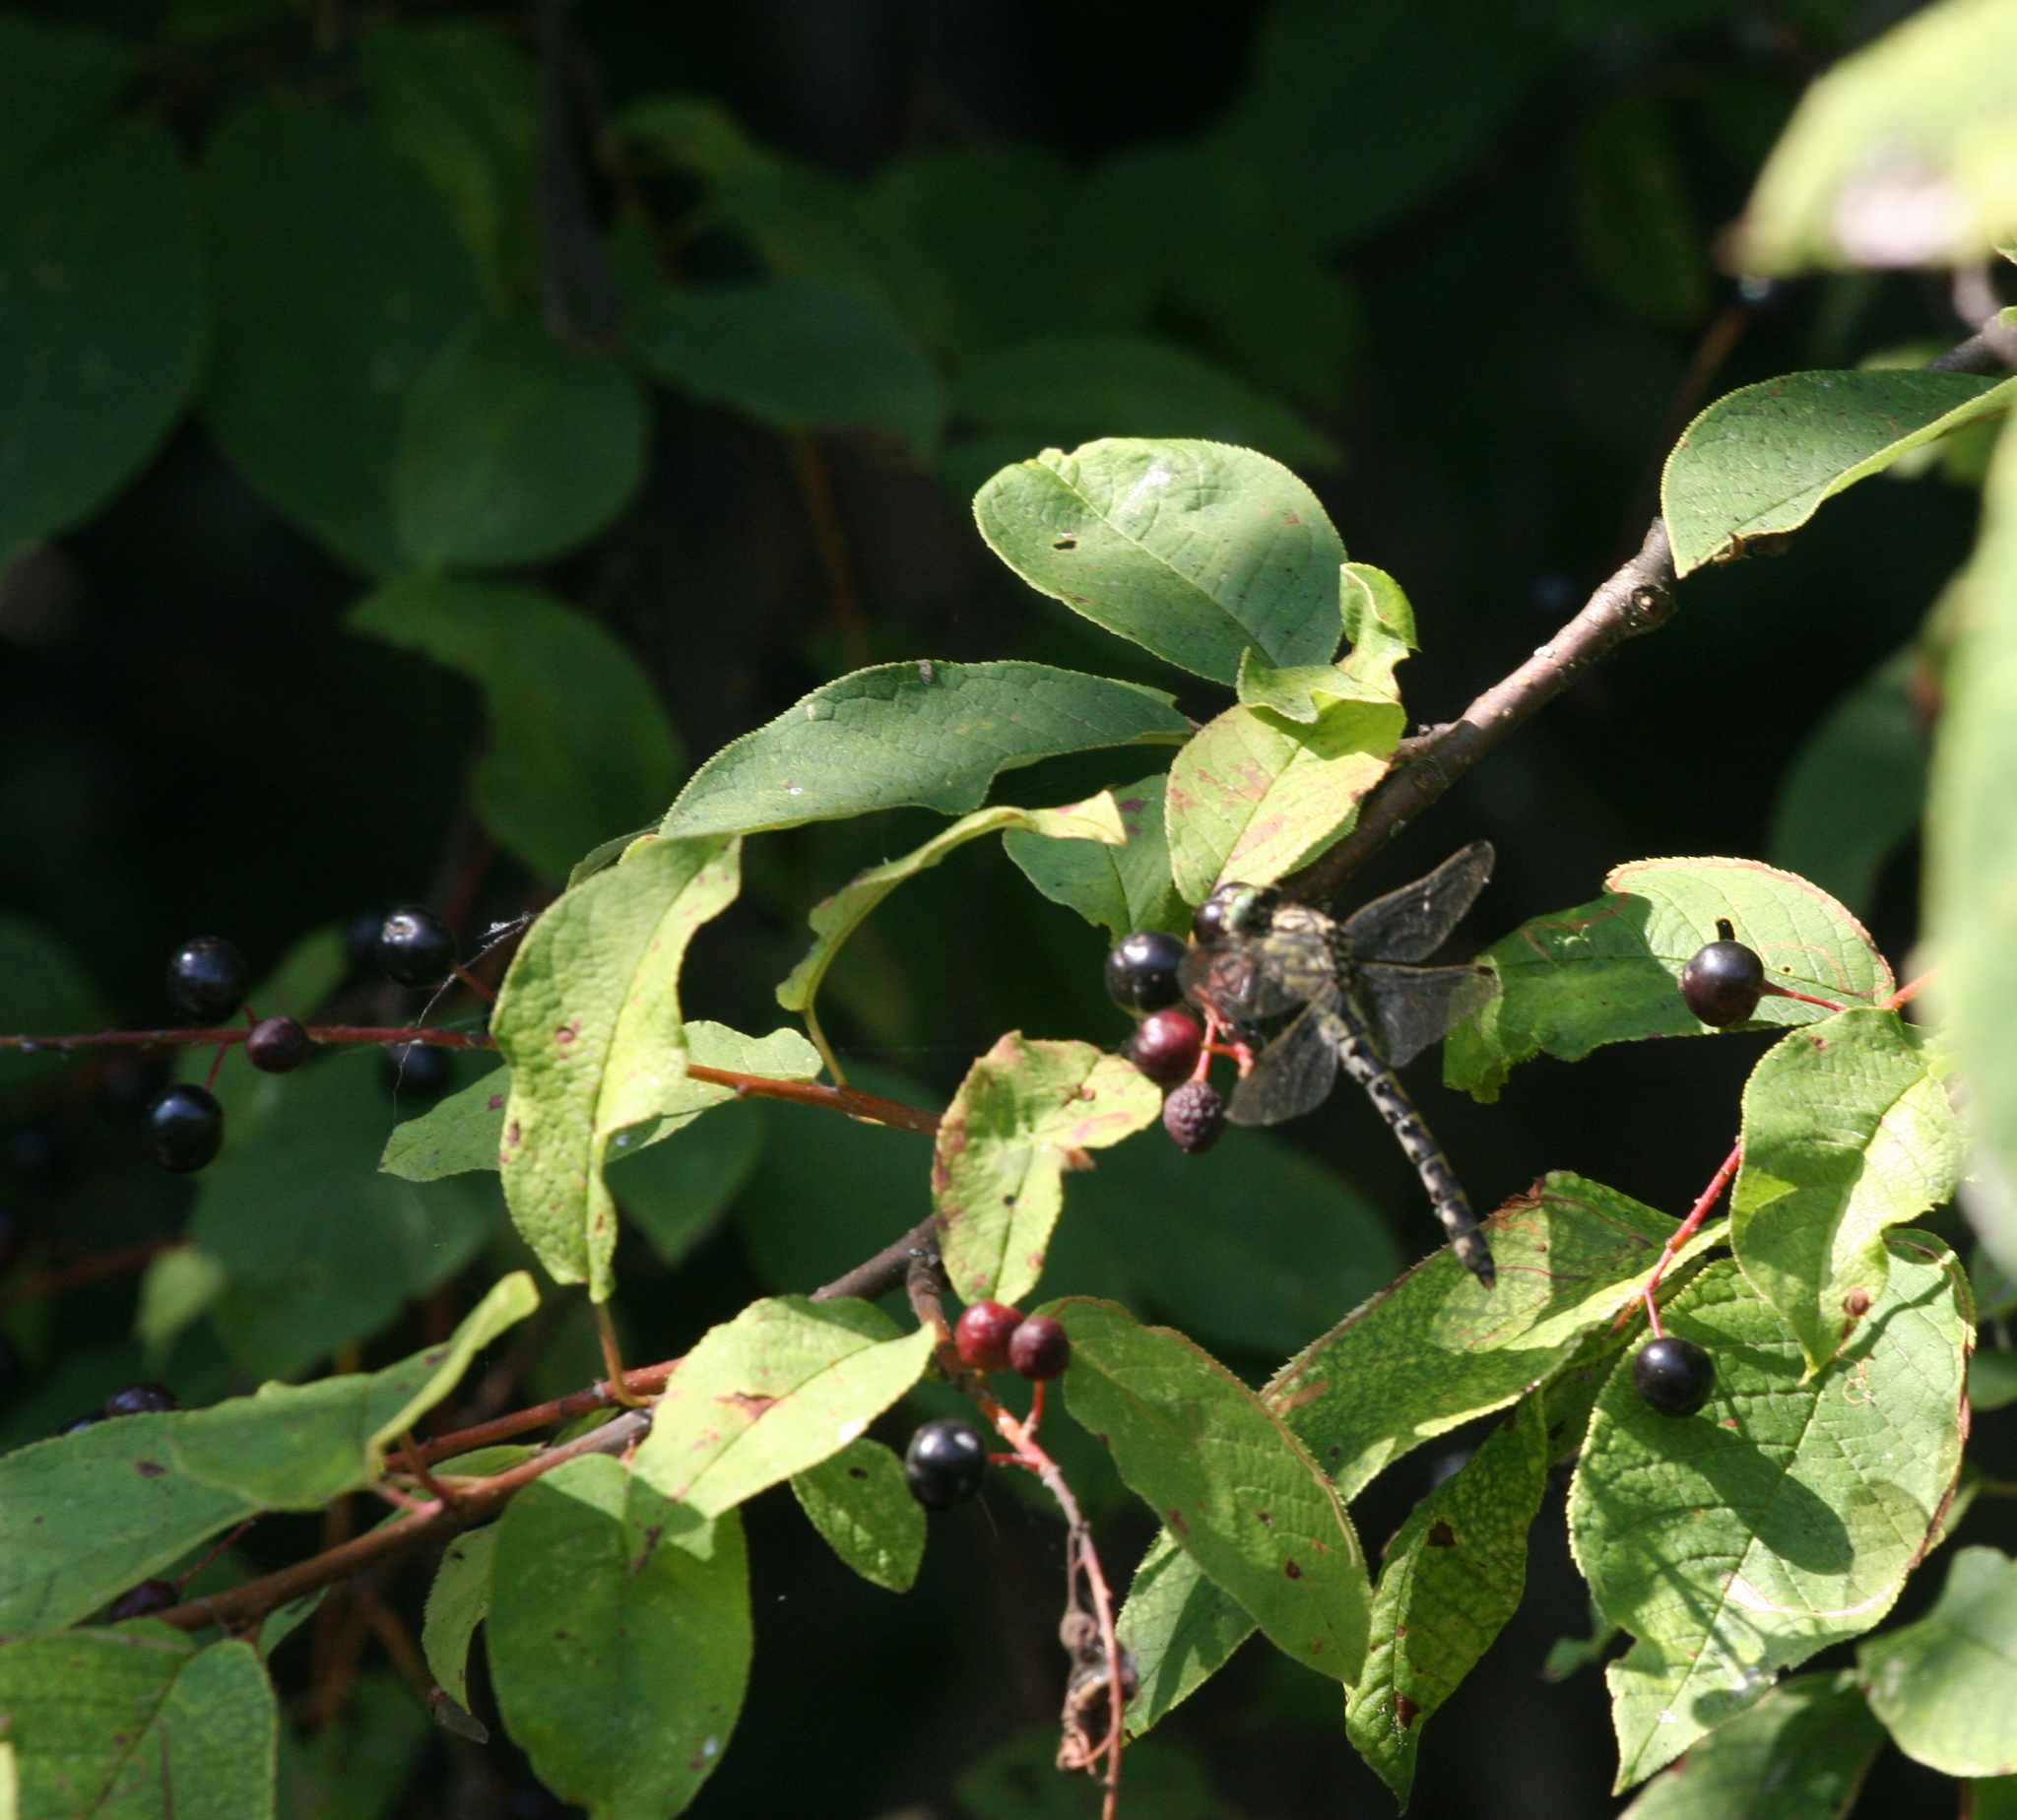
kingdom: Plantae
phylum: Tracheophyta
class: Magnoliopsida
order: Rosales
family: Rosaceae
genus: Prunus
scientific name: Prunus padus
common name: Bird cherry
